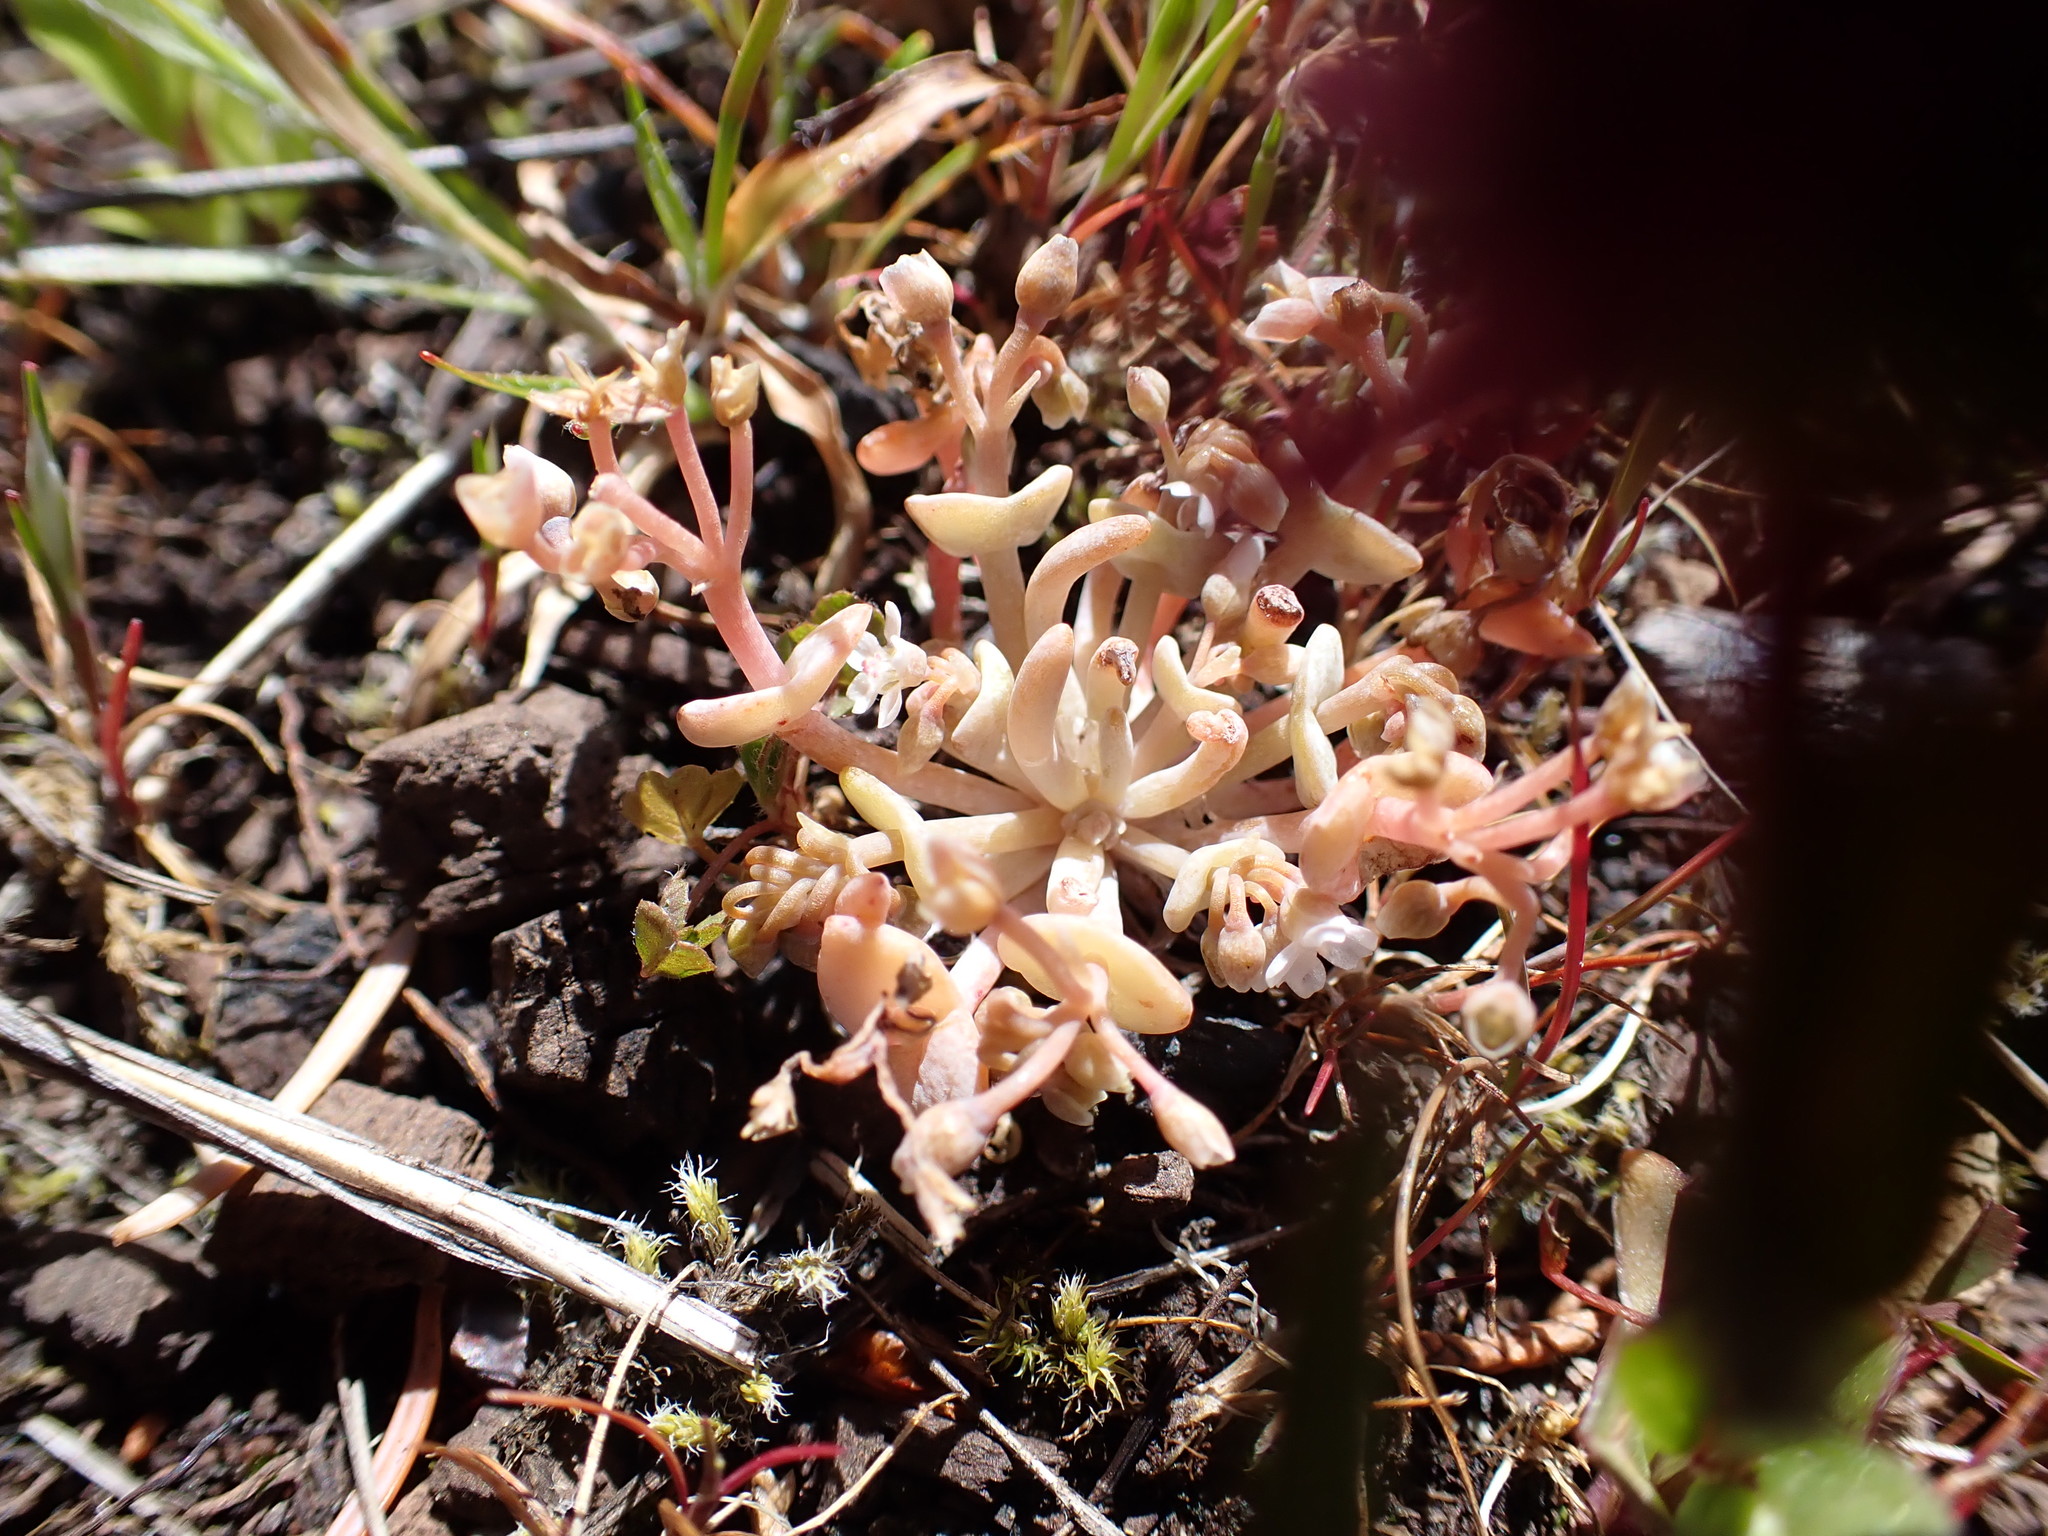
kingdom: Plantae
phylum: Tracheophyta
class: Magnoliopsida
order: Caryophyllales
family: Montiaceae
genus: Claytonia
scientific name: Claytonia exigua
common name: Pale spring beauty
